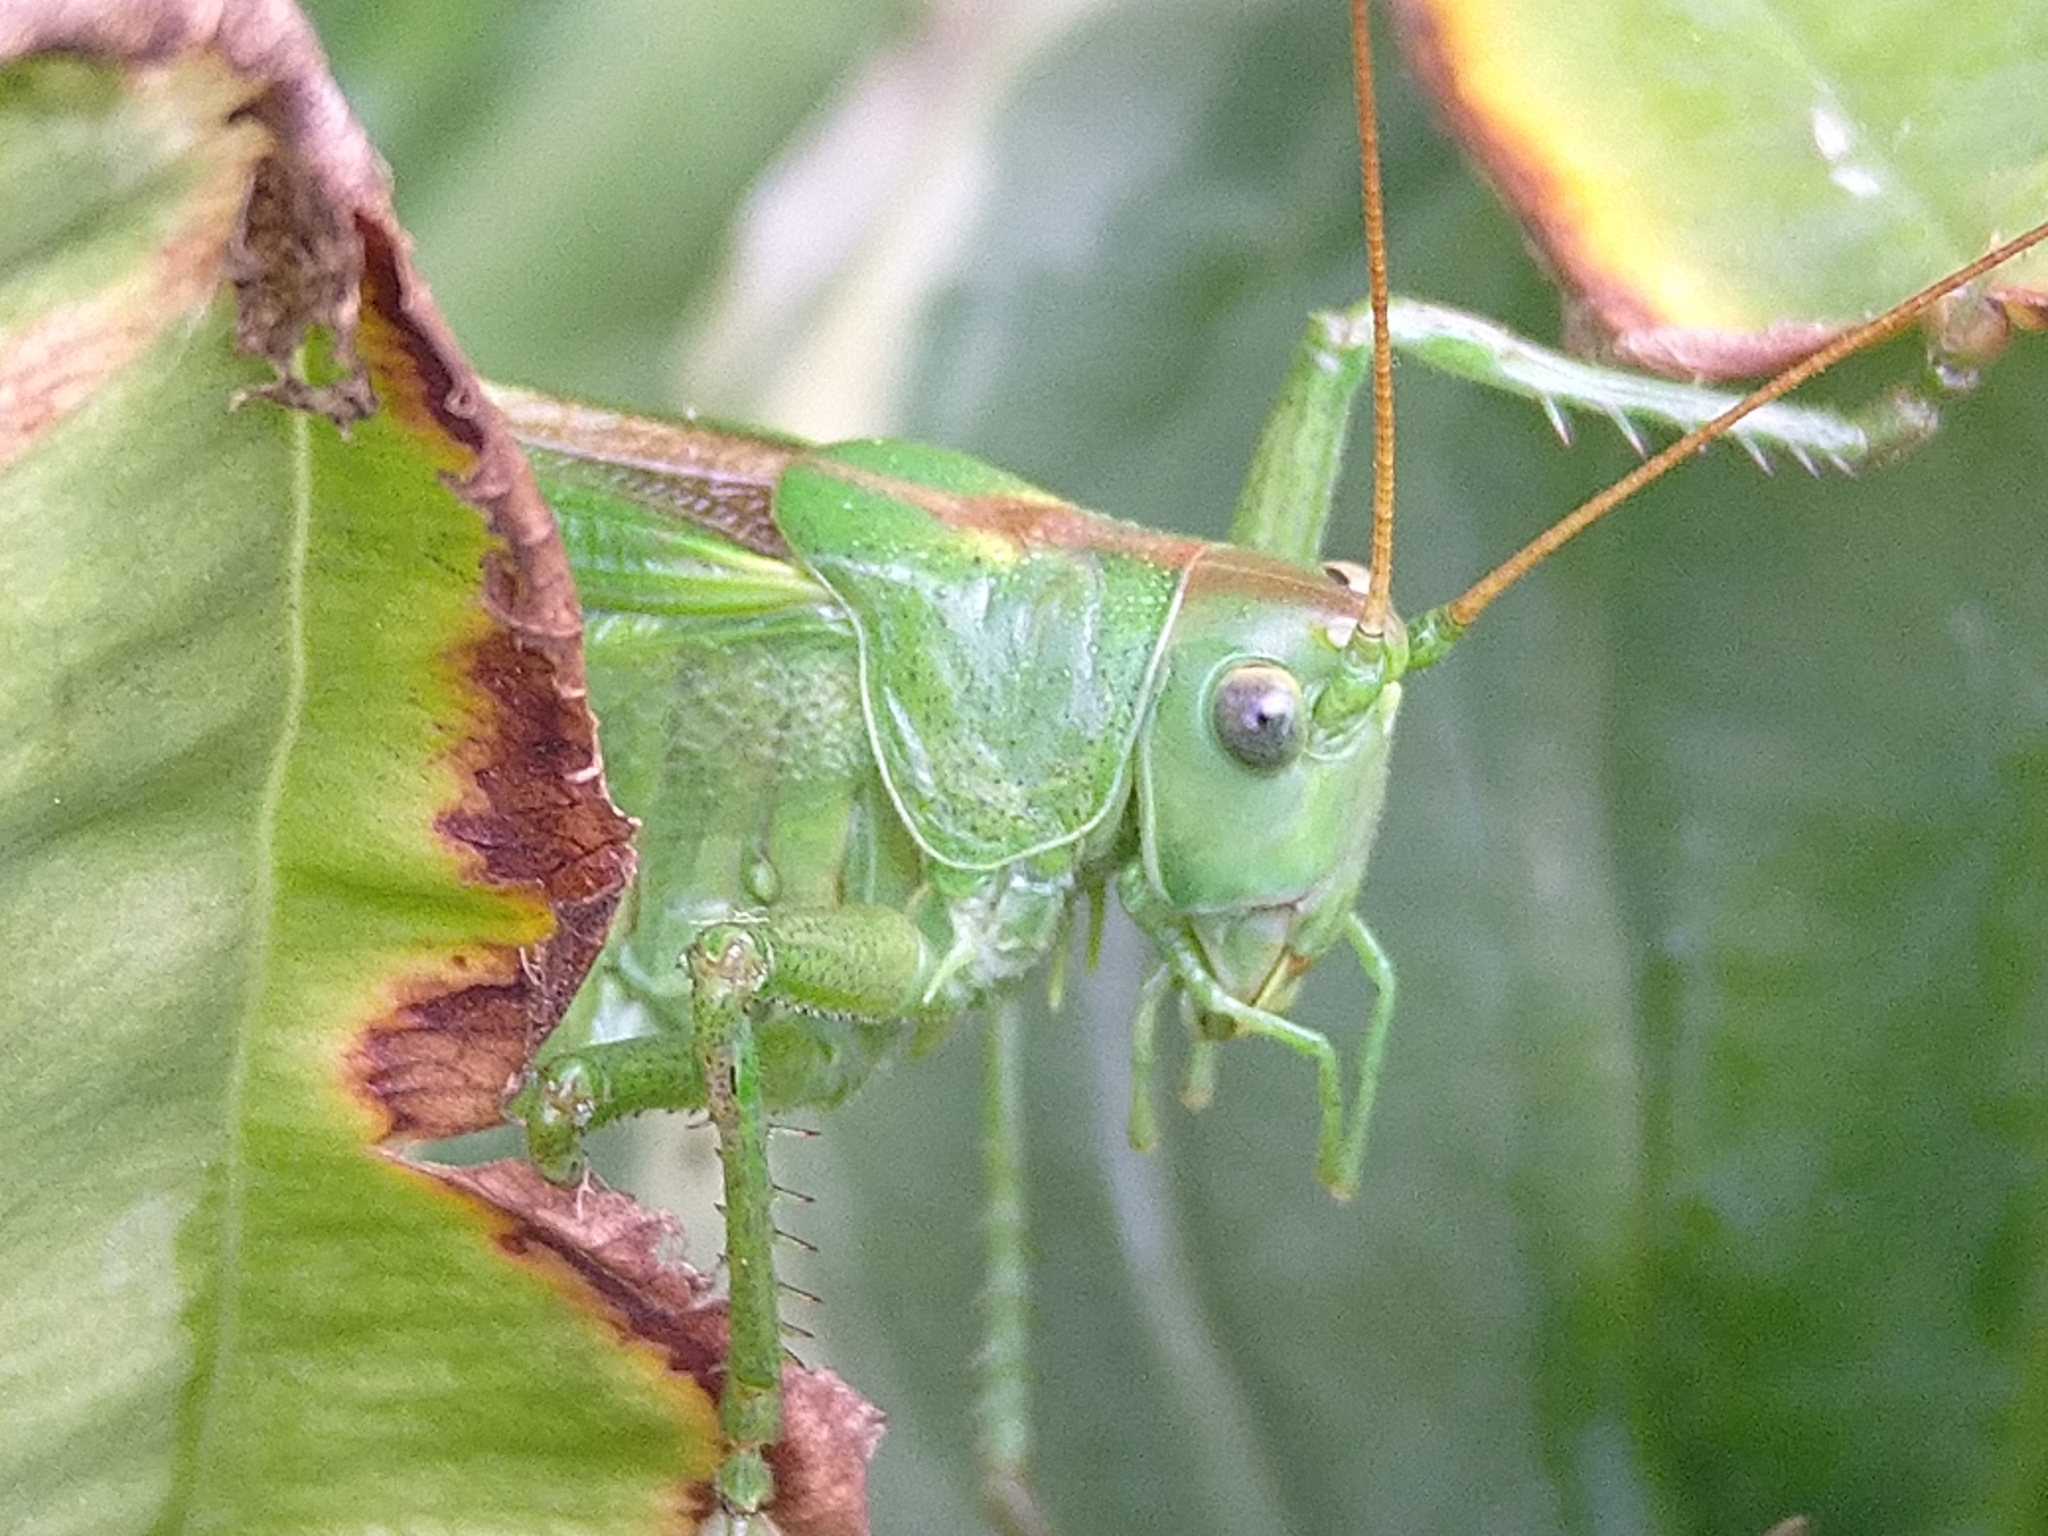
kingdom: Animalia
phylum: Arthropoda
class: Insecta
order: Orthoptera
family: Tettigoniidae
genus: Tettigonia
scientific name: Tettigonia viridissima
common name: Great green bush-cricket
